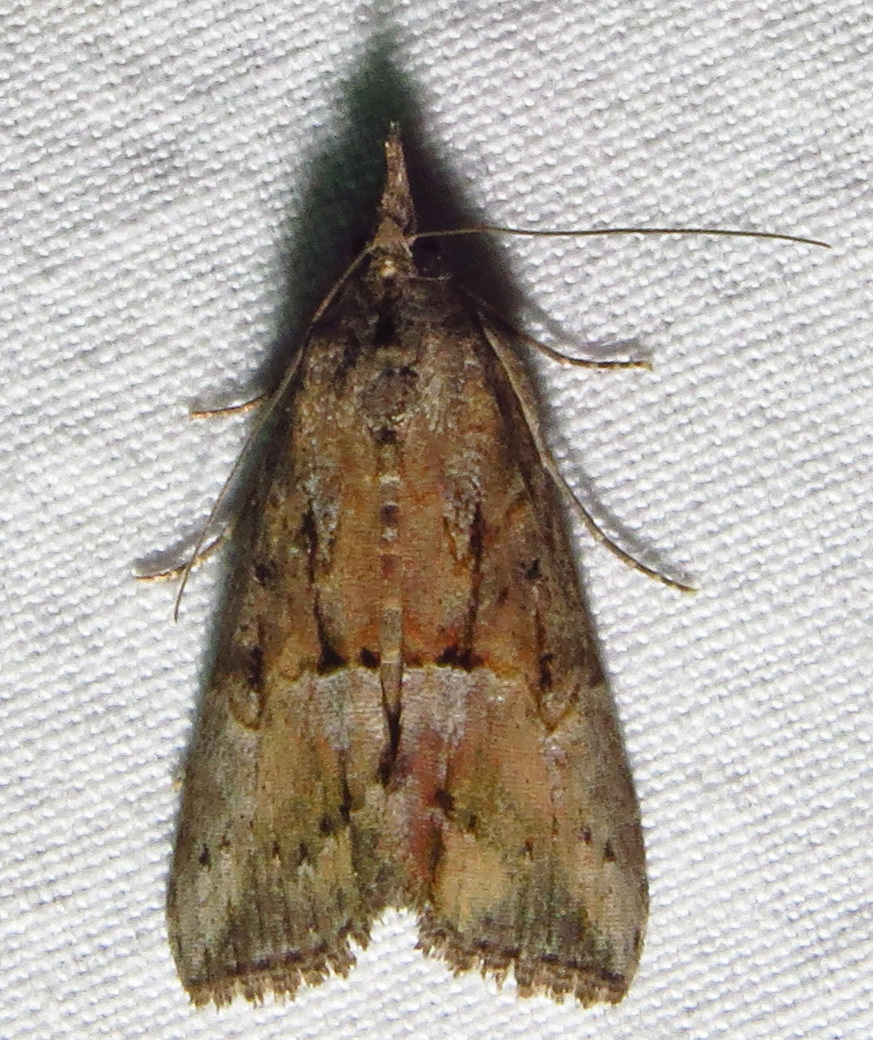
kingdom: Animalia
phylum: Arthropoda
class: Insecta
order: Lepidoptera
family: Erebidae
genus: Hypena
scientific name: Hypena scabra
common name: Green cloverworm
